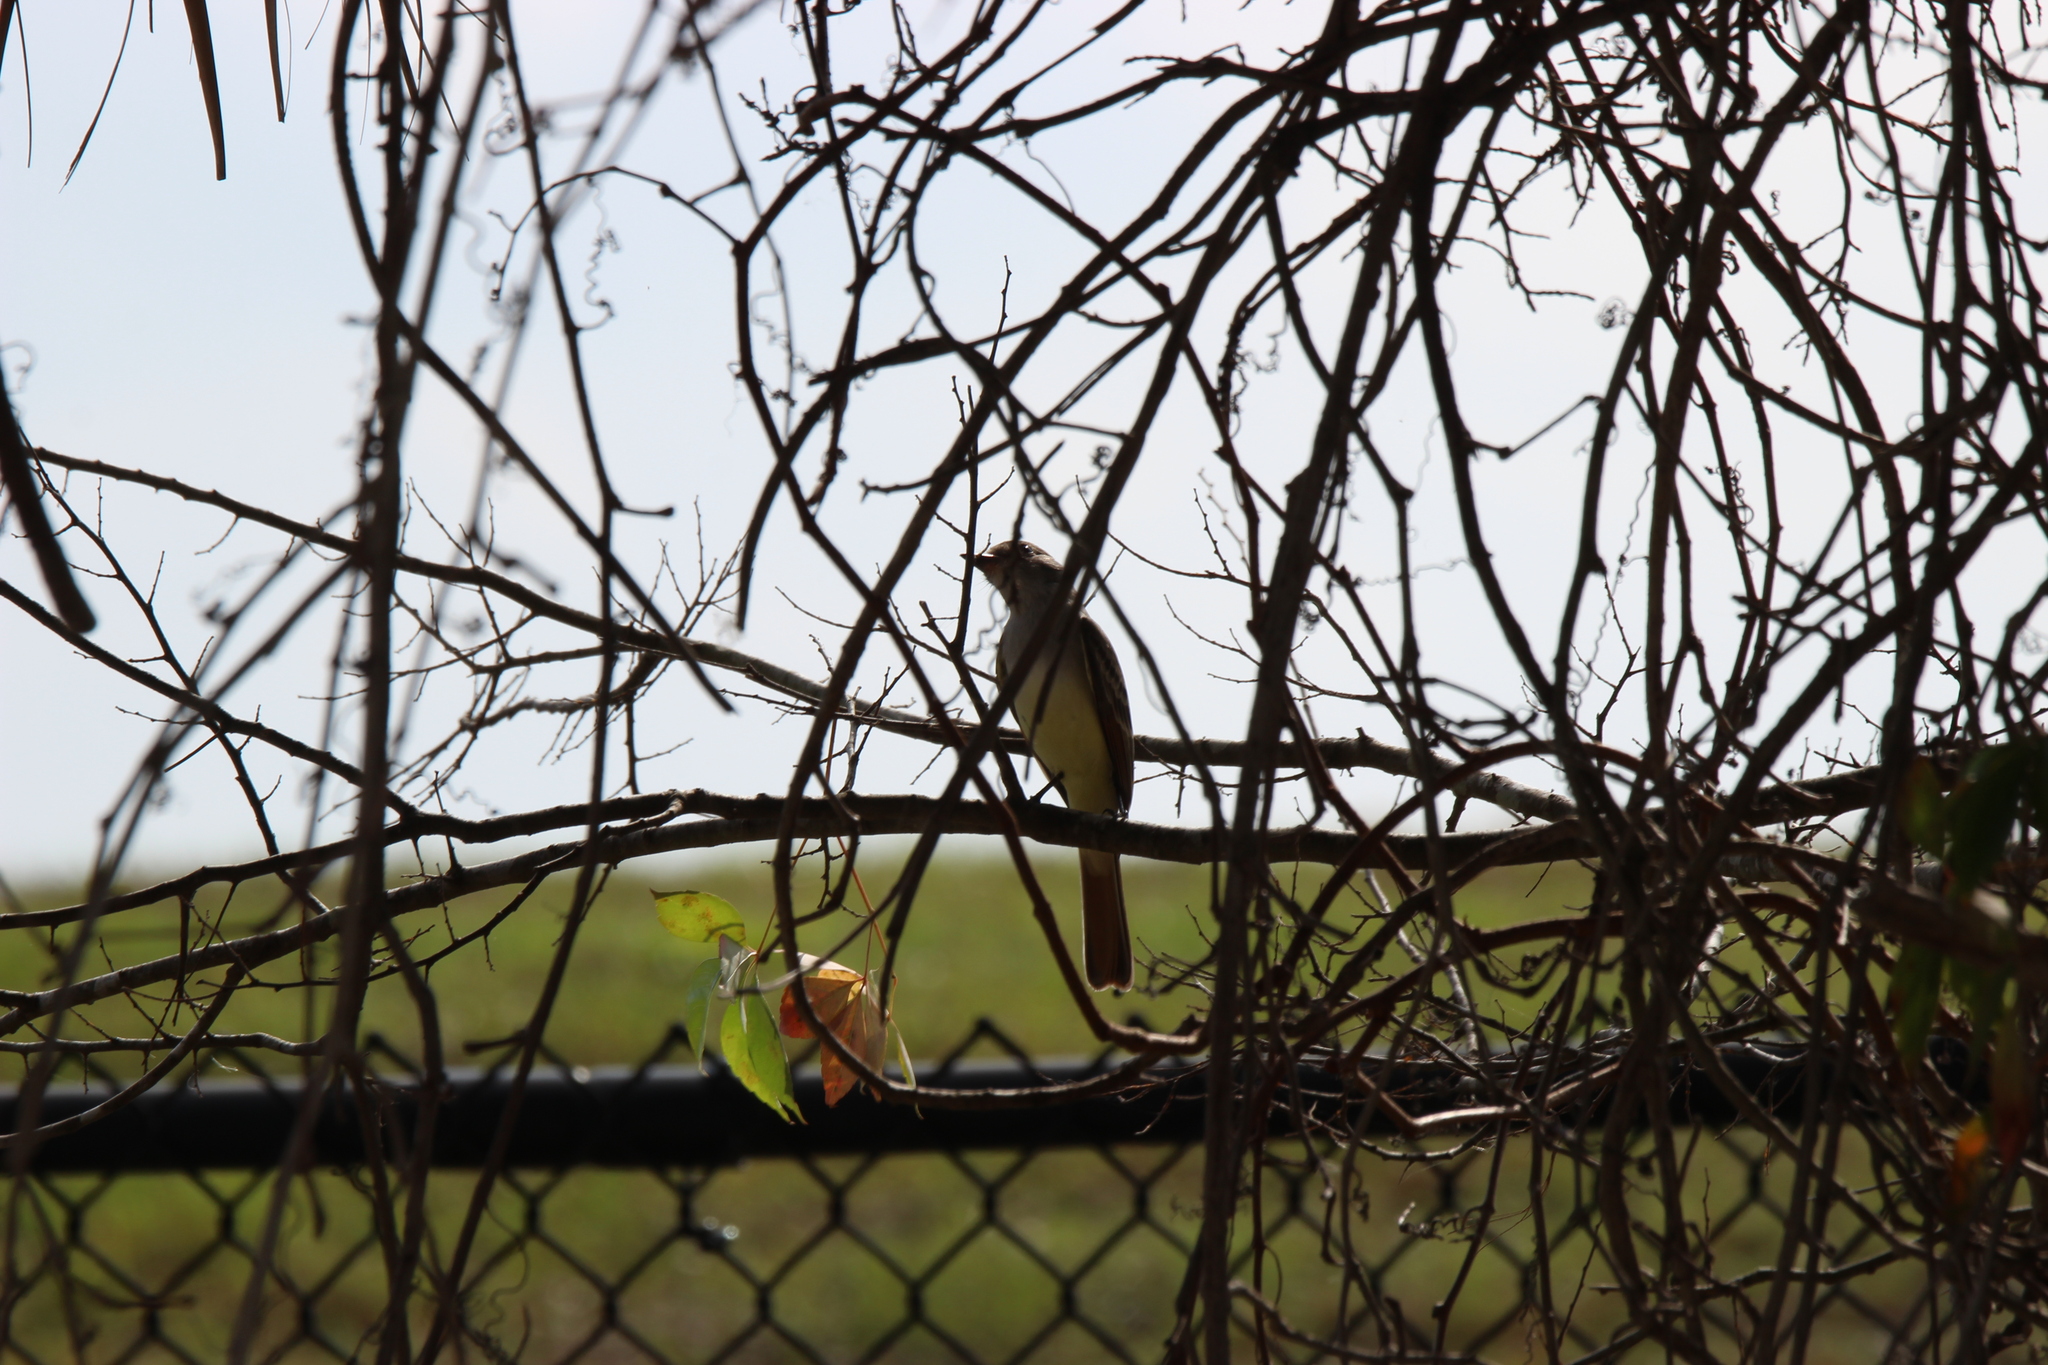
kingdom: Animalia
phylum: Chordata
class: Aves
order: Passeriformes
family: Tyrannidae
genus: Myiarchus
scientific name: Myiarchus cinerascens
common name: Ash-throated flycatcher
